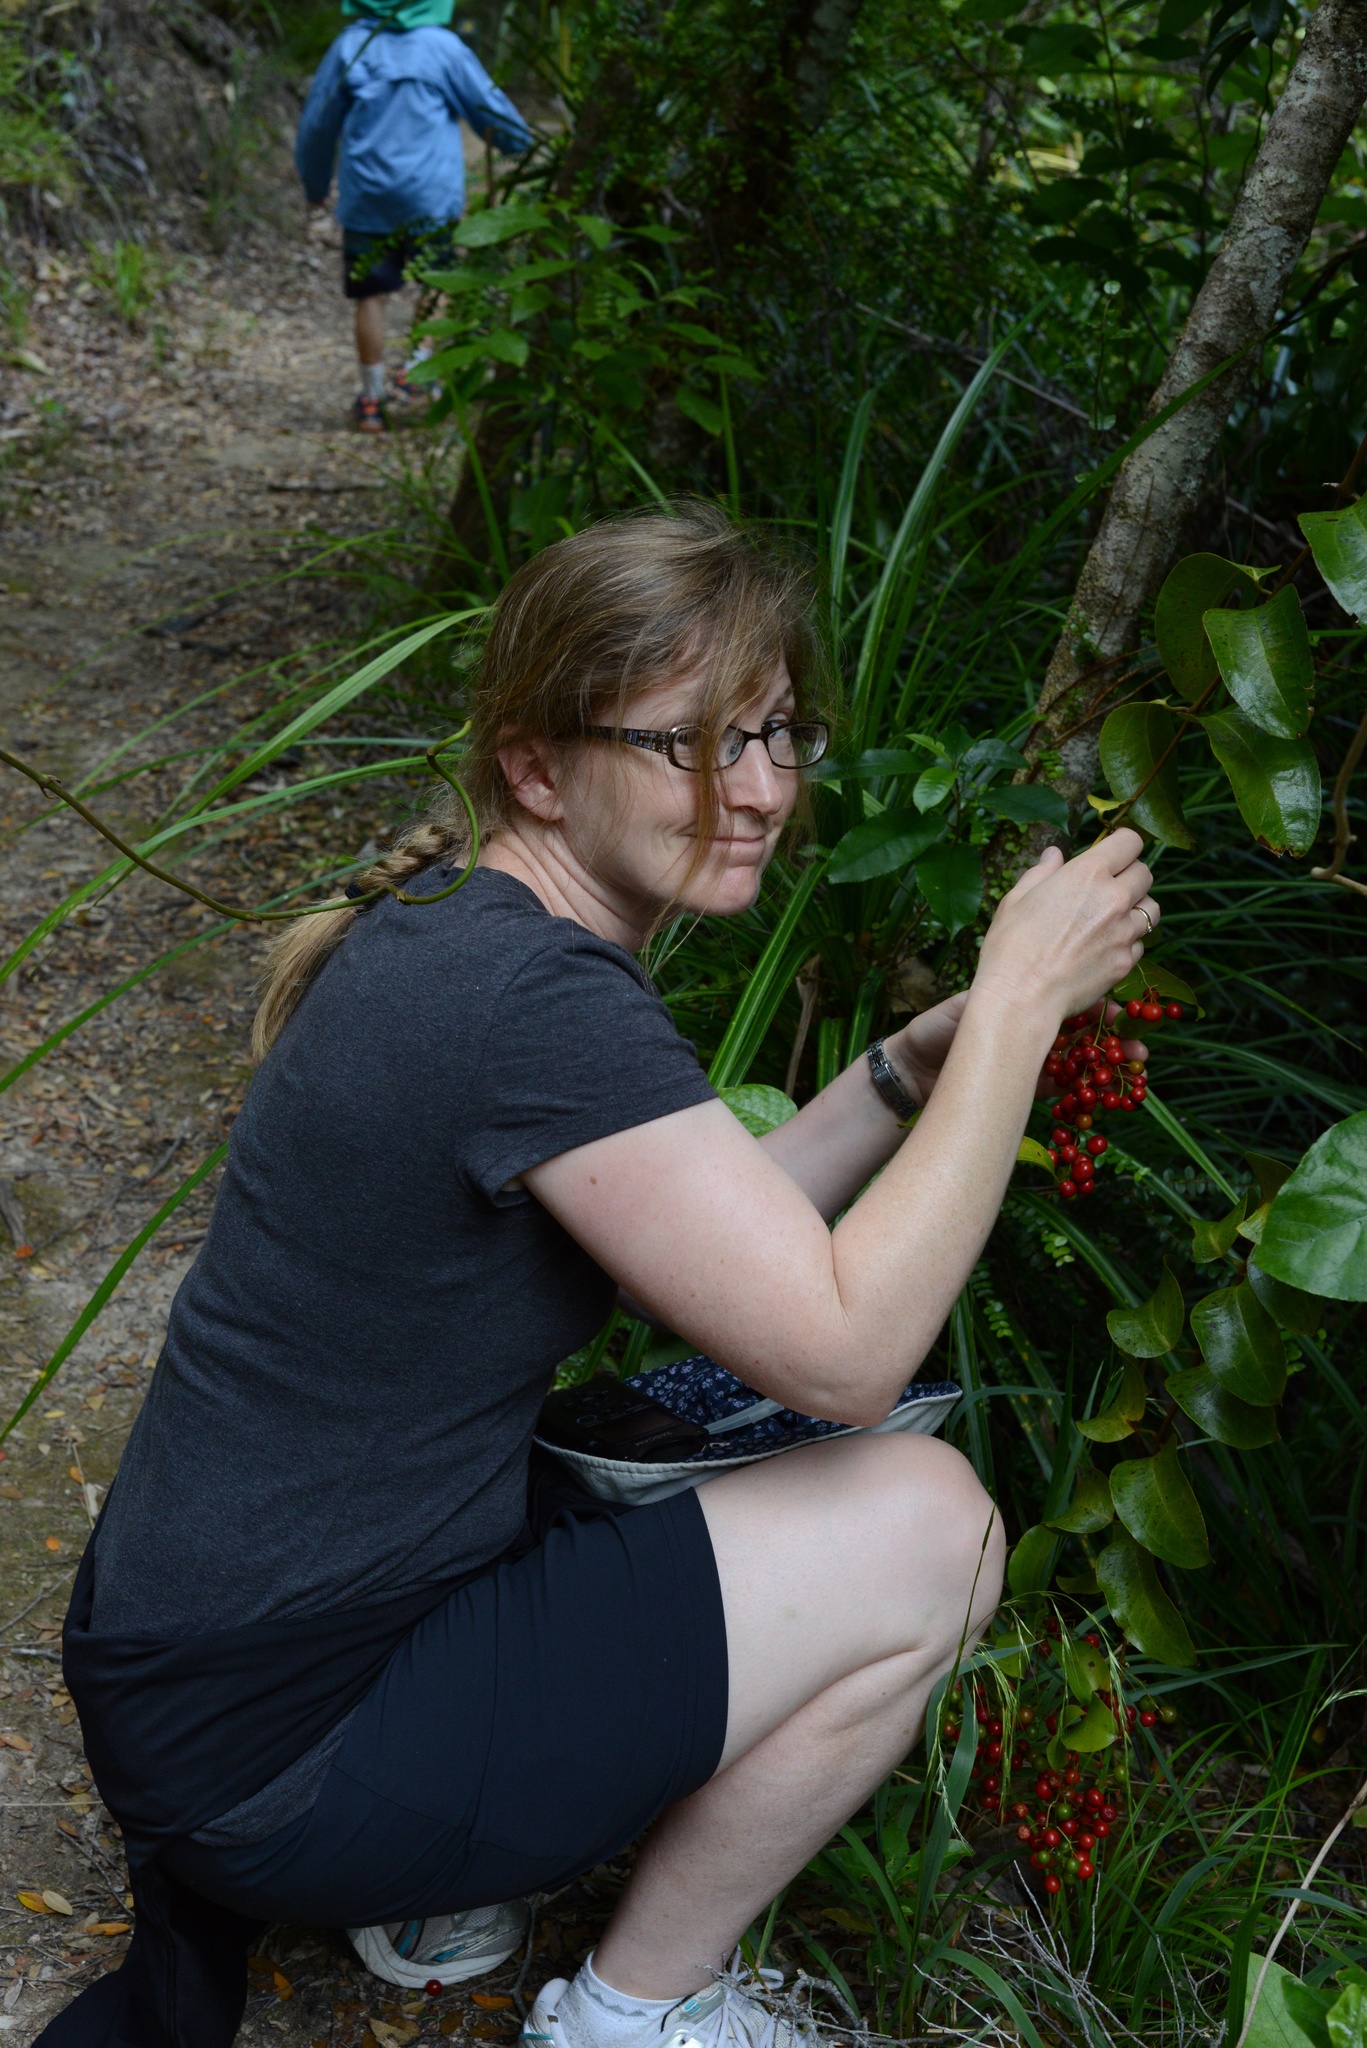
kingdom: Plantae
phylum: Tracheophyta
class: Liliopsida
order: Liliales
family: Ripogonaceae
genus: Ripogonum
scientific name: Ripogonum scandens
